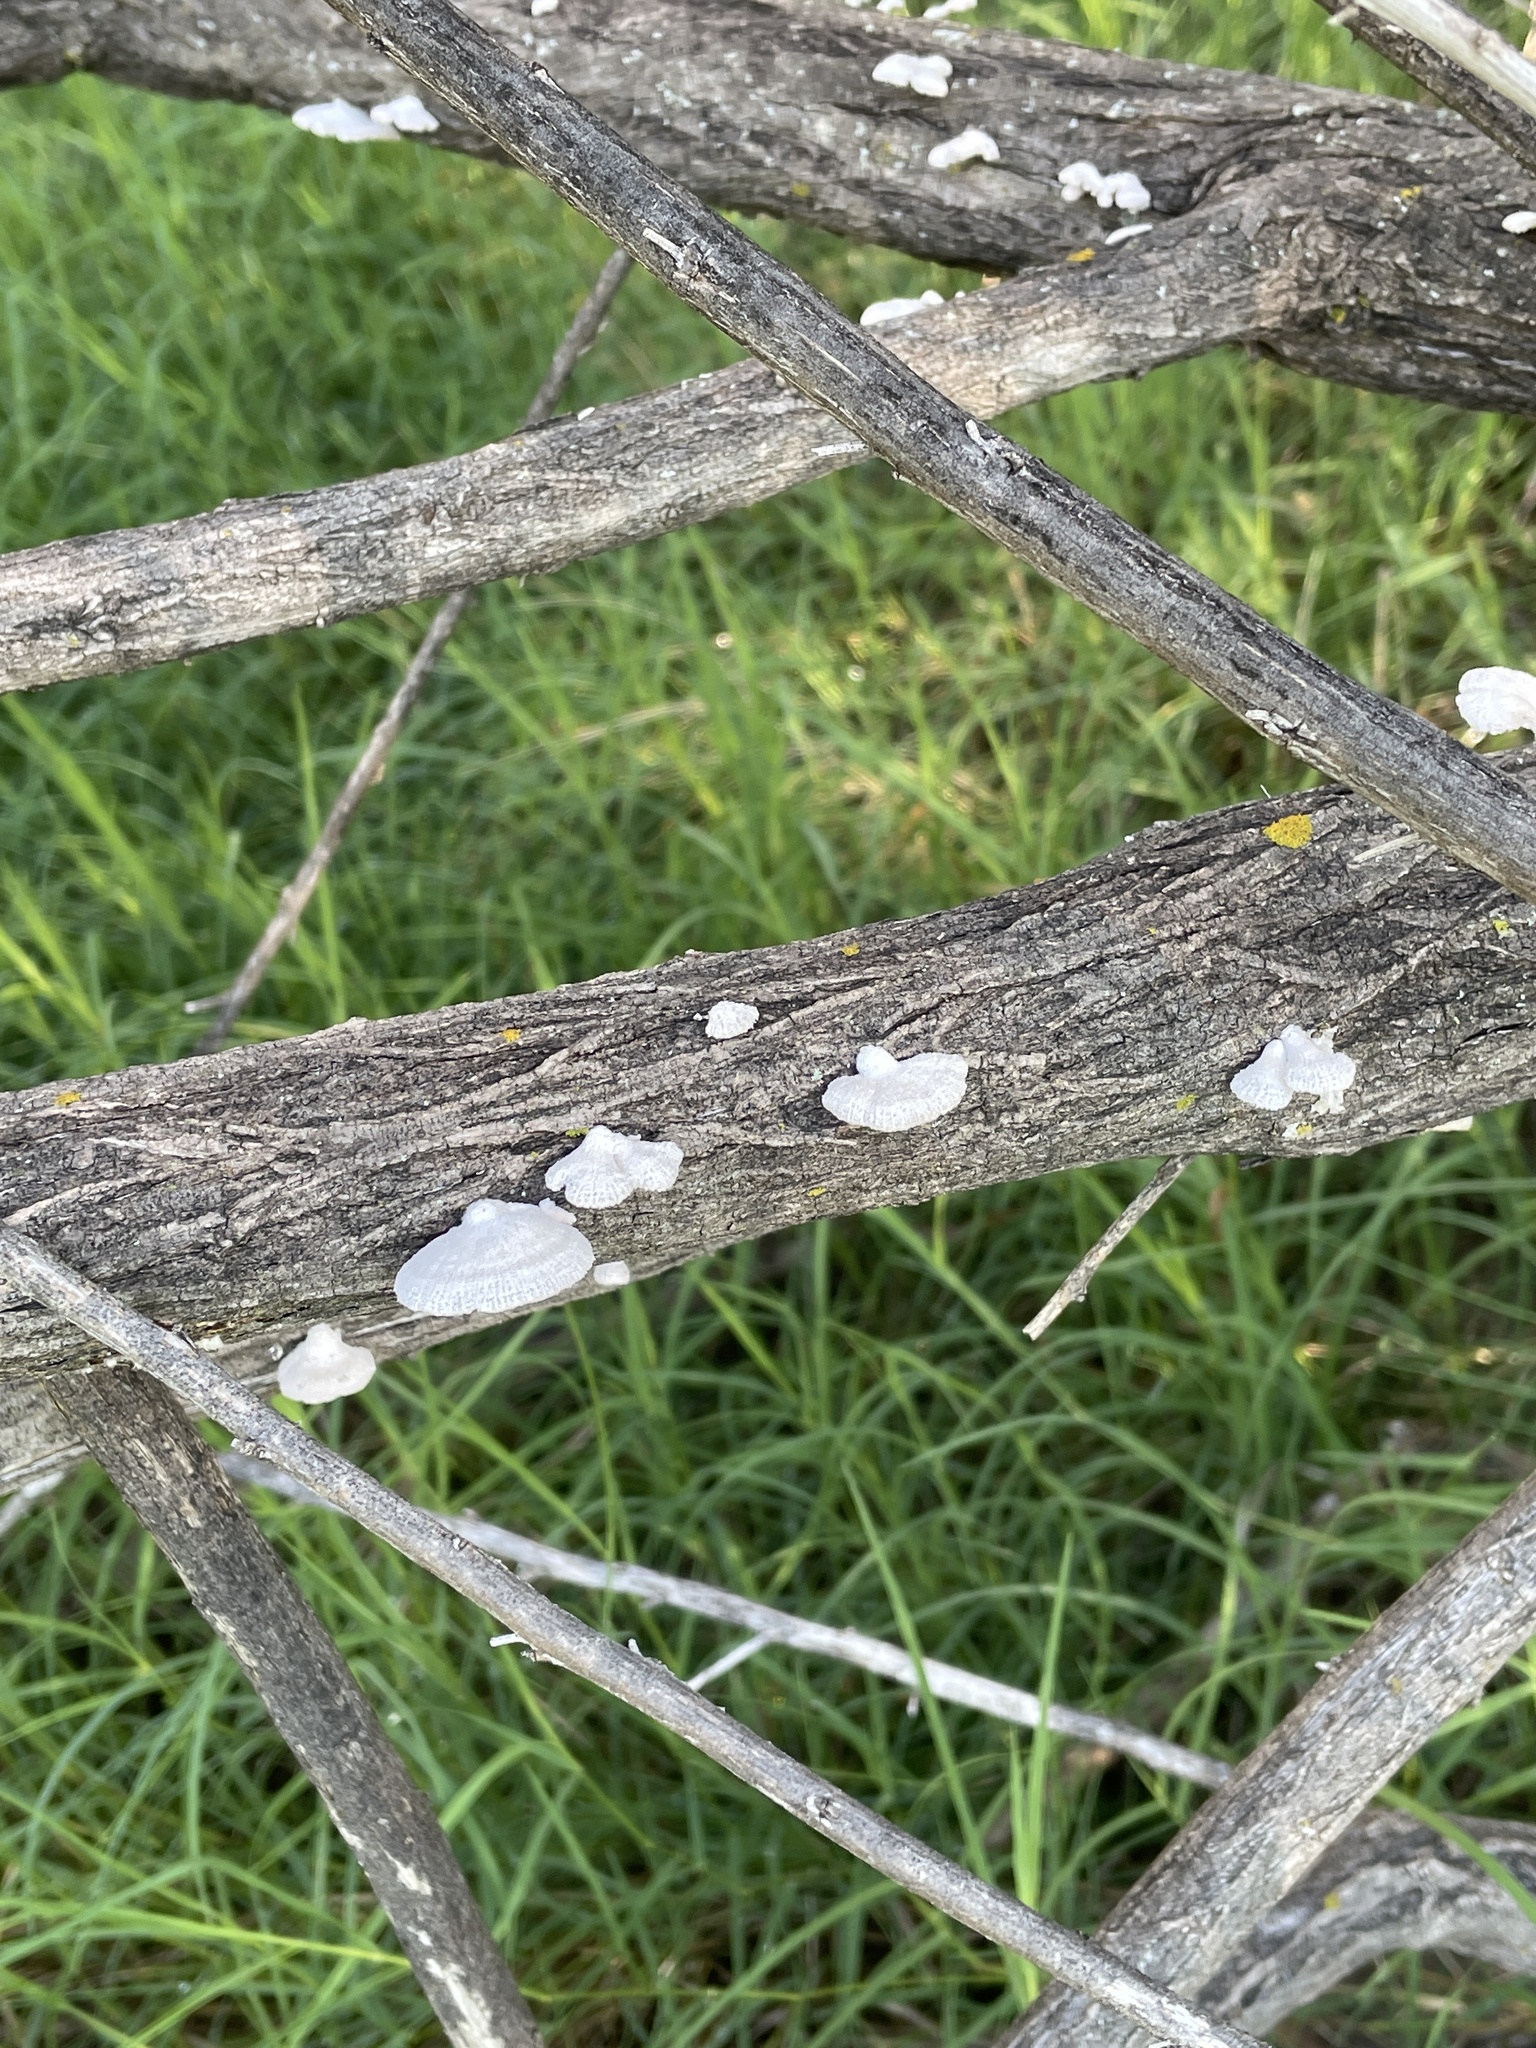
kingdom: Fungi
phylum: Basidiomycota
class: Agaricomycetes
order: Agaricales
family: Schizophyllaceae
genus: Schizophyllum
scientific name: Schizophyllum commune
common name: Common porecrust
